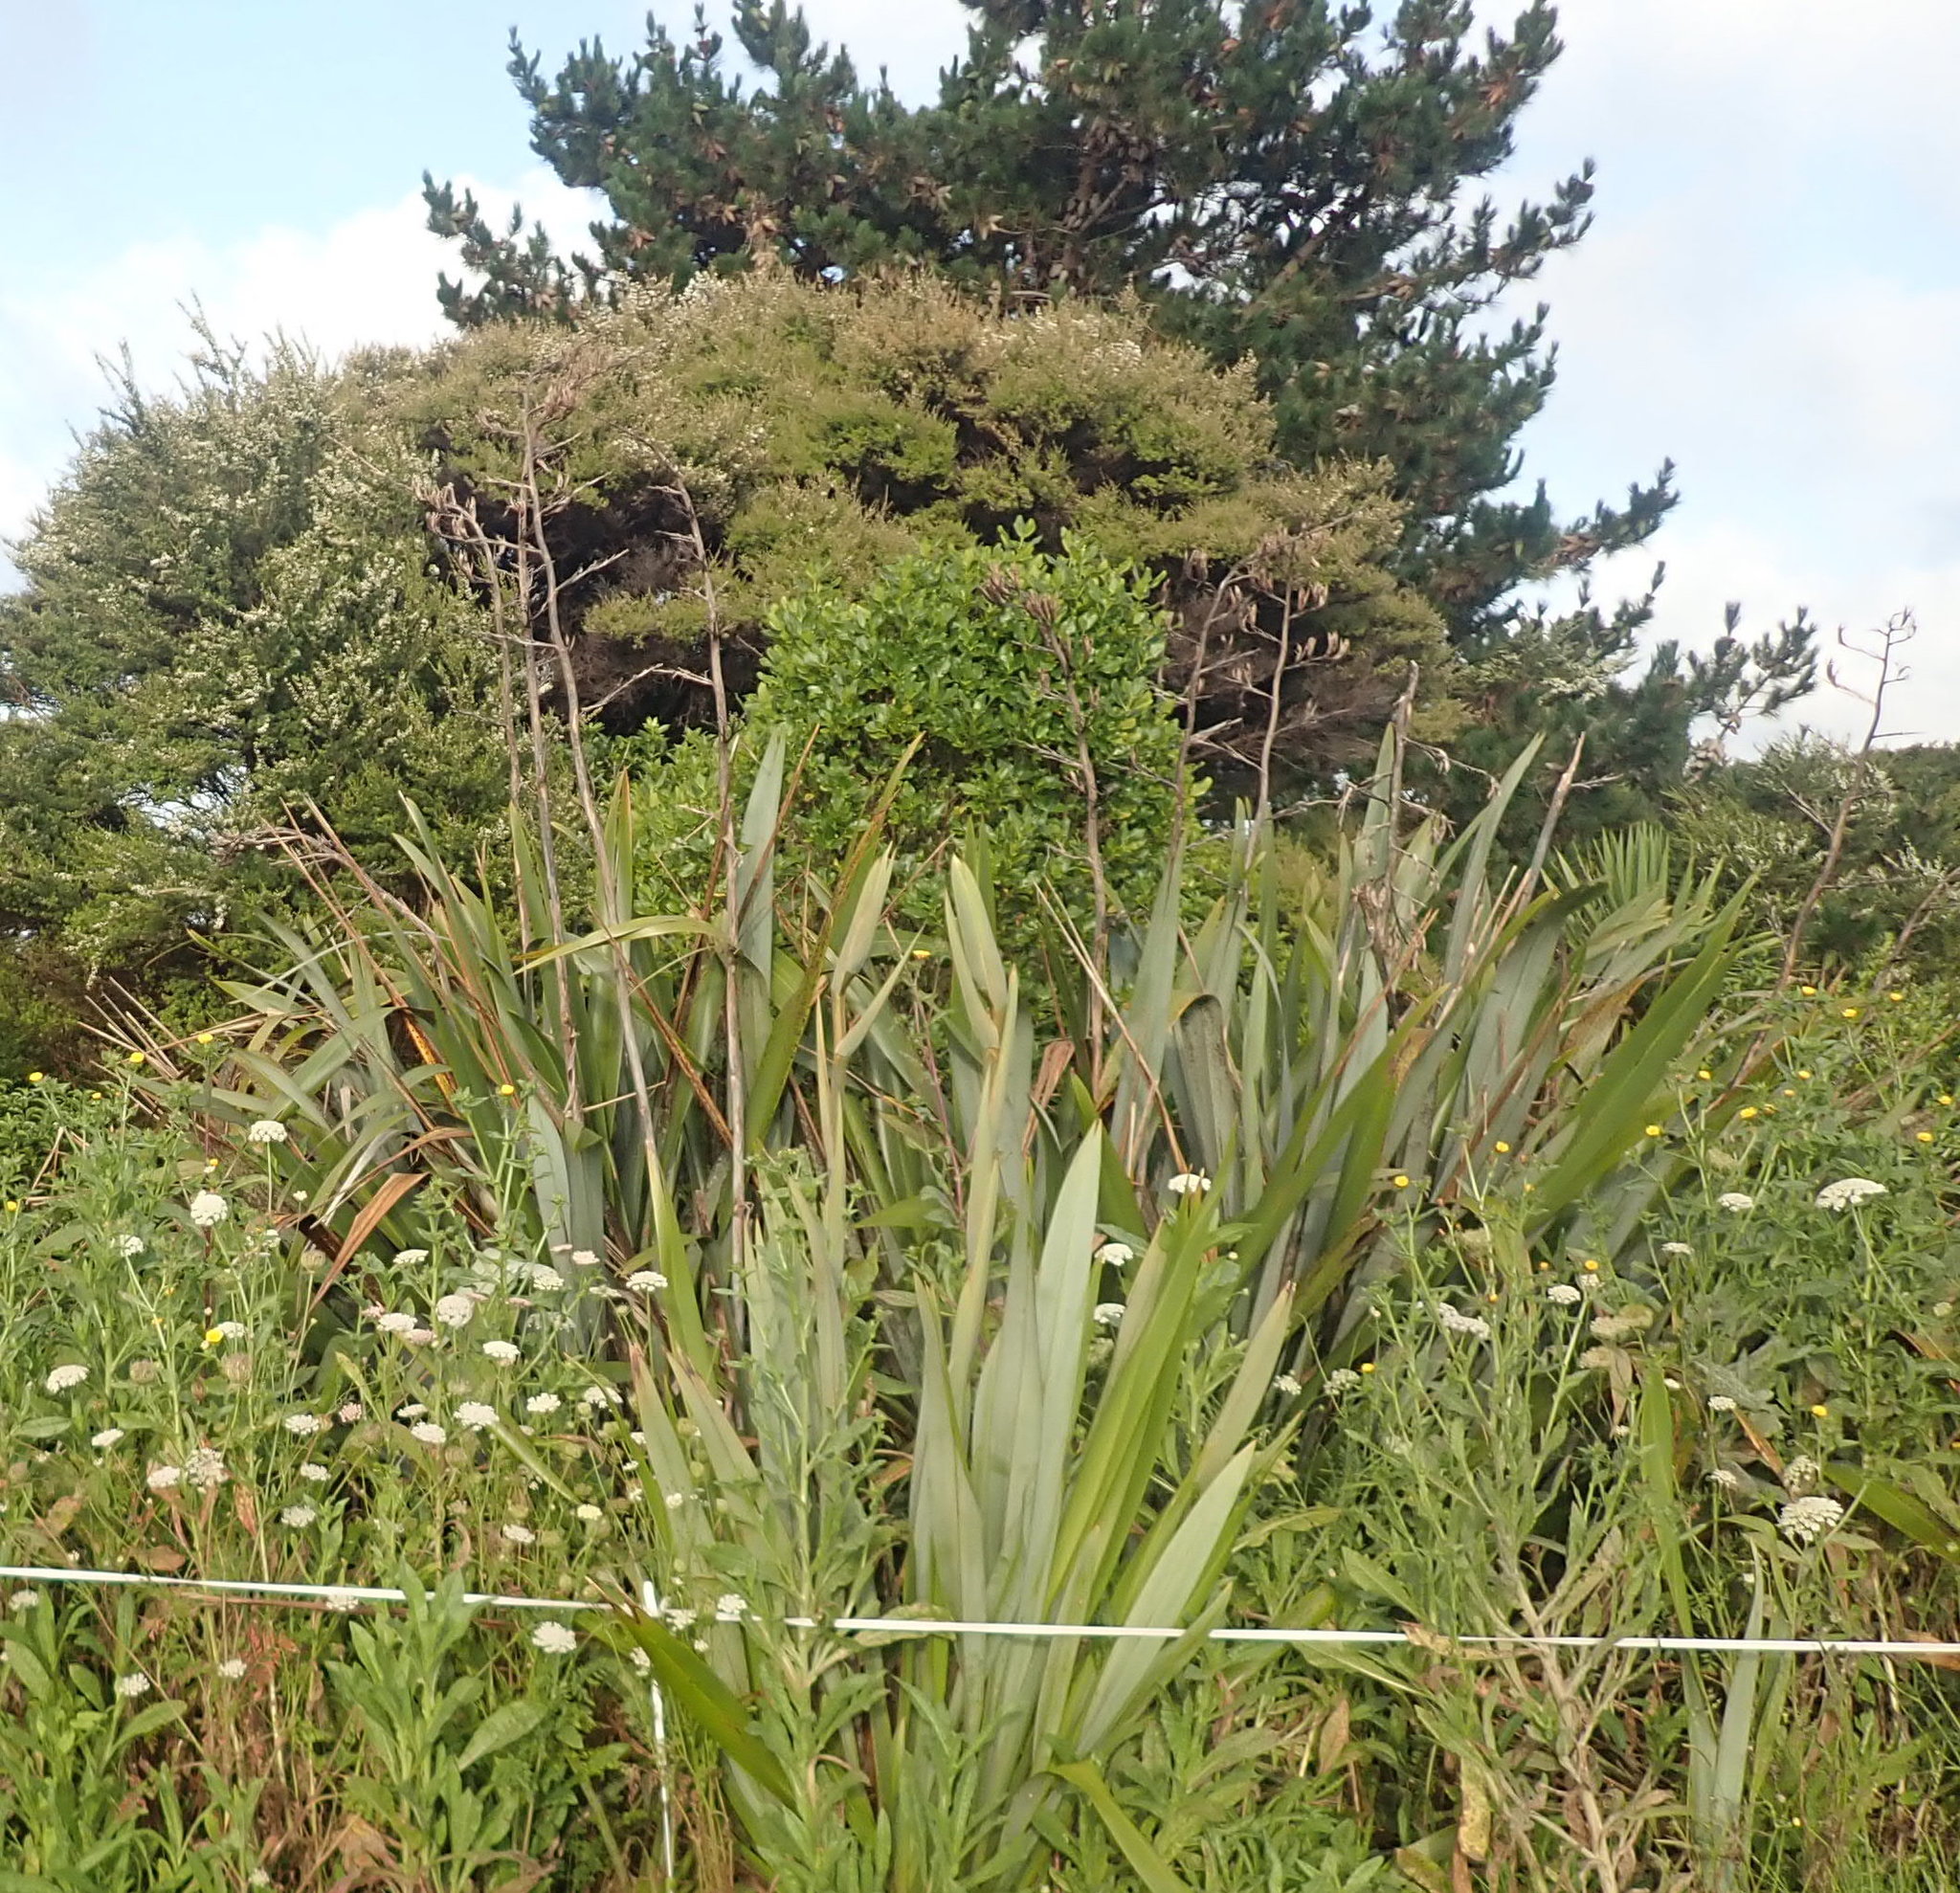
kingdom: Plantae
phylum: Tracheophyta
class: Magnoliopsida
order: Gentianales
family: Rubiaceae
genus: Coprosma
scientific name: Coprosma robusta
